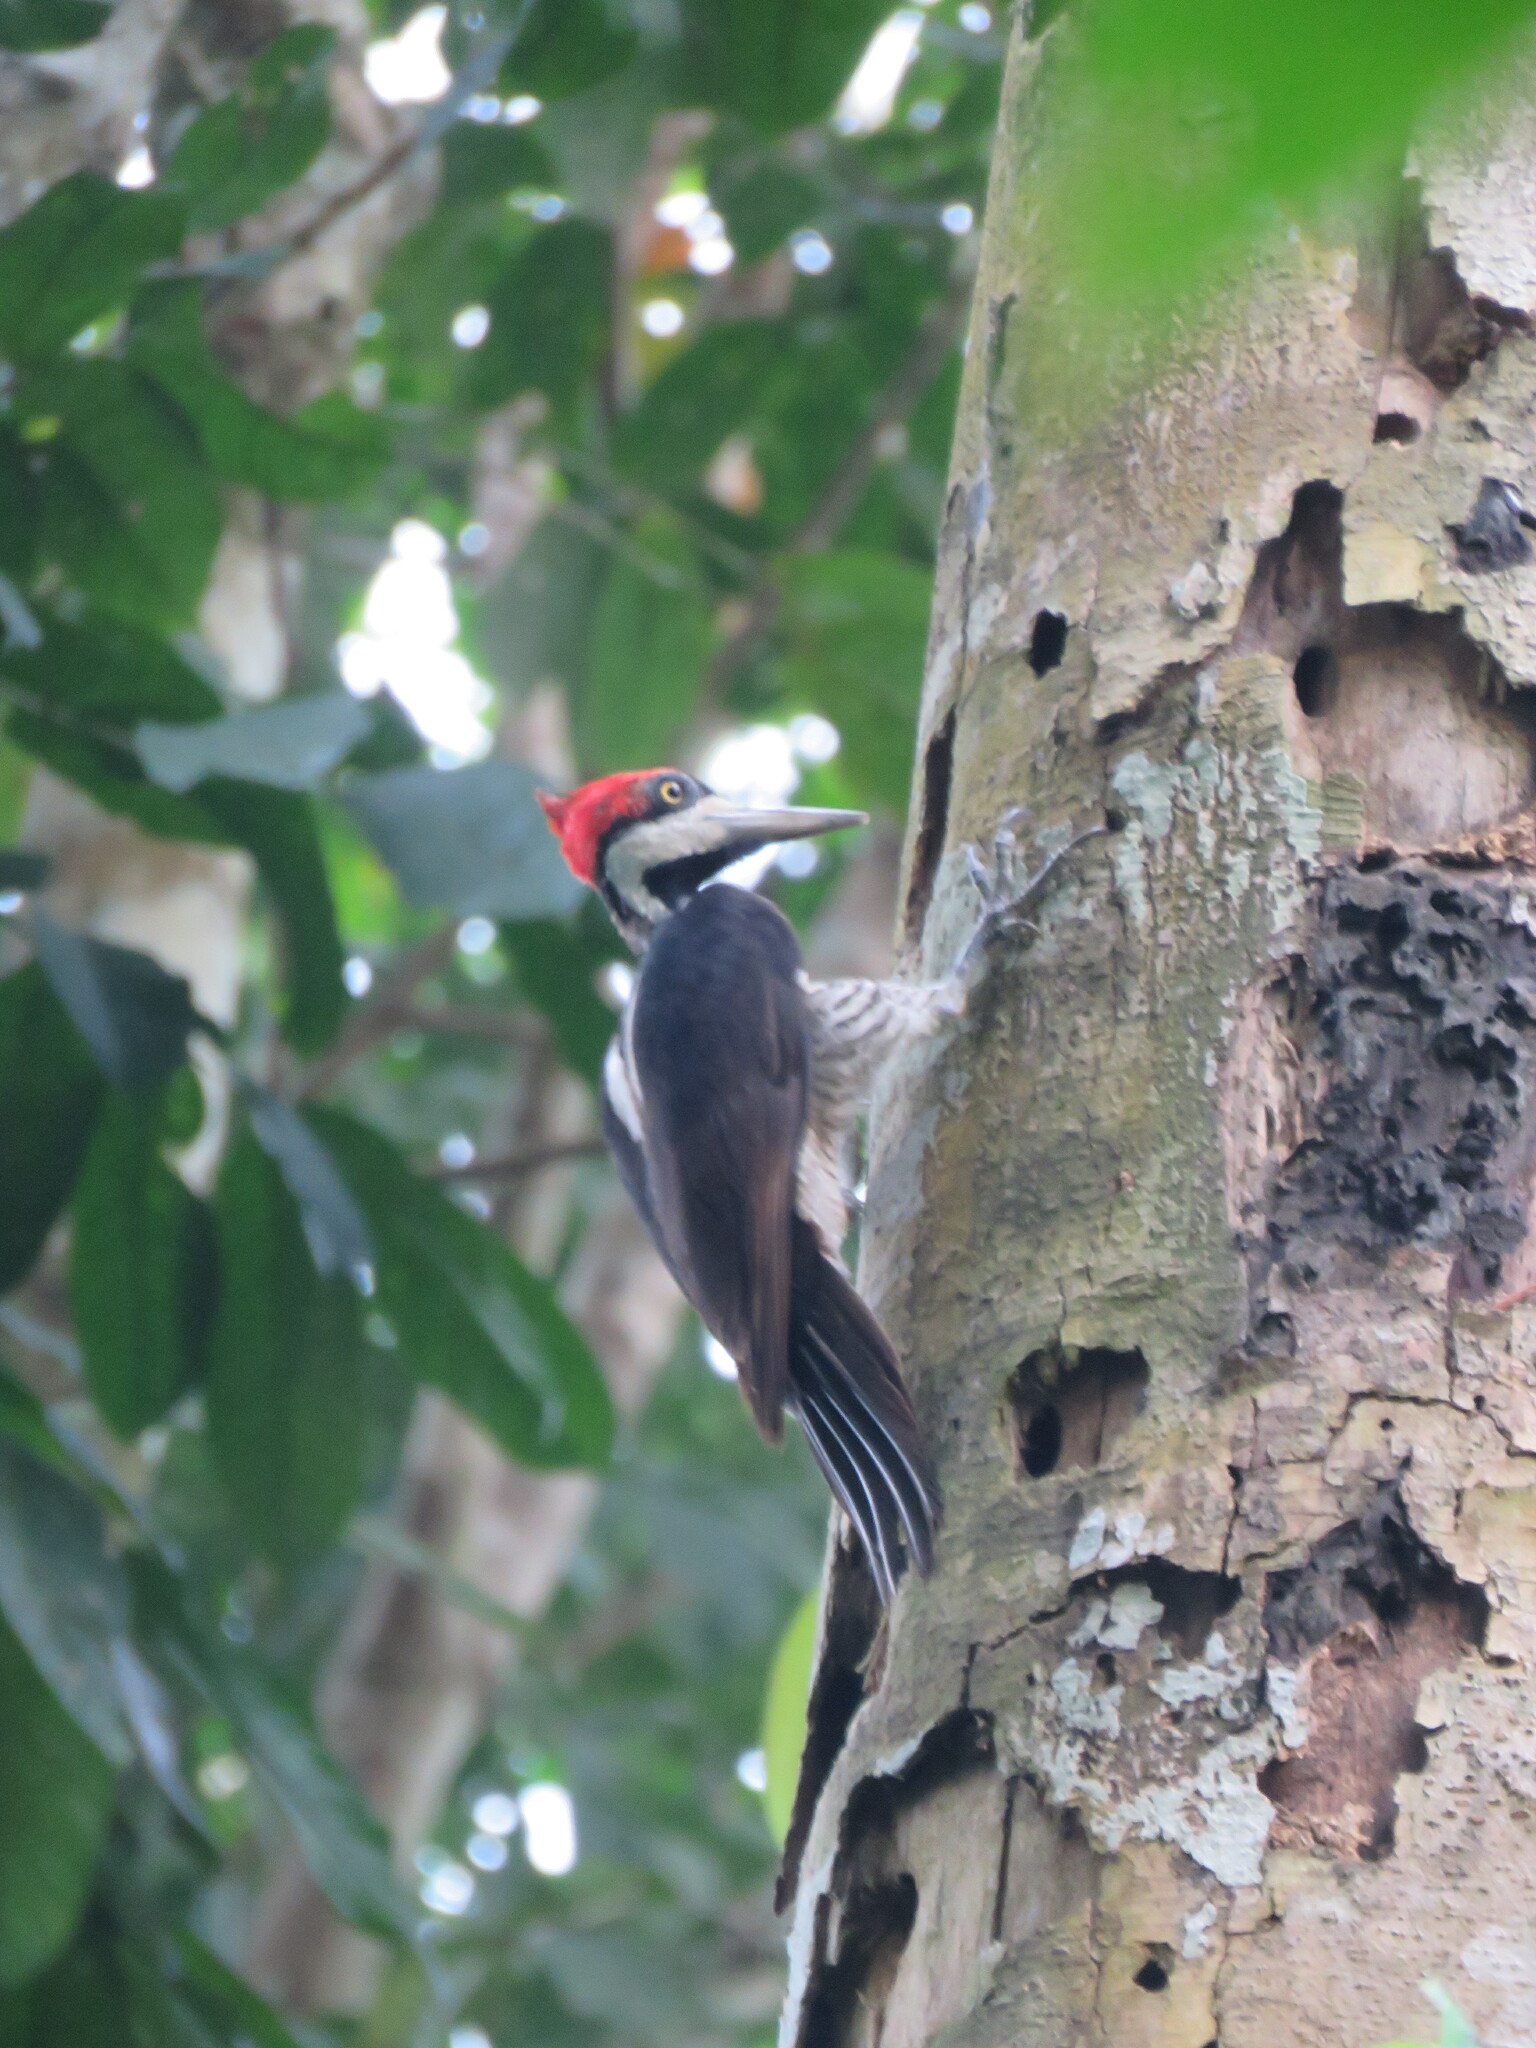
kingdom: Animalia
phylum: Chordata
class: Aves
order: Piciformes
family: Picidae
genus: Campephilus
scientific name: Campephilus melanoleucos
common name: Crimson-crested woodpecker
